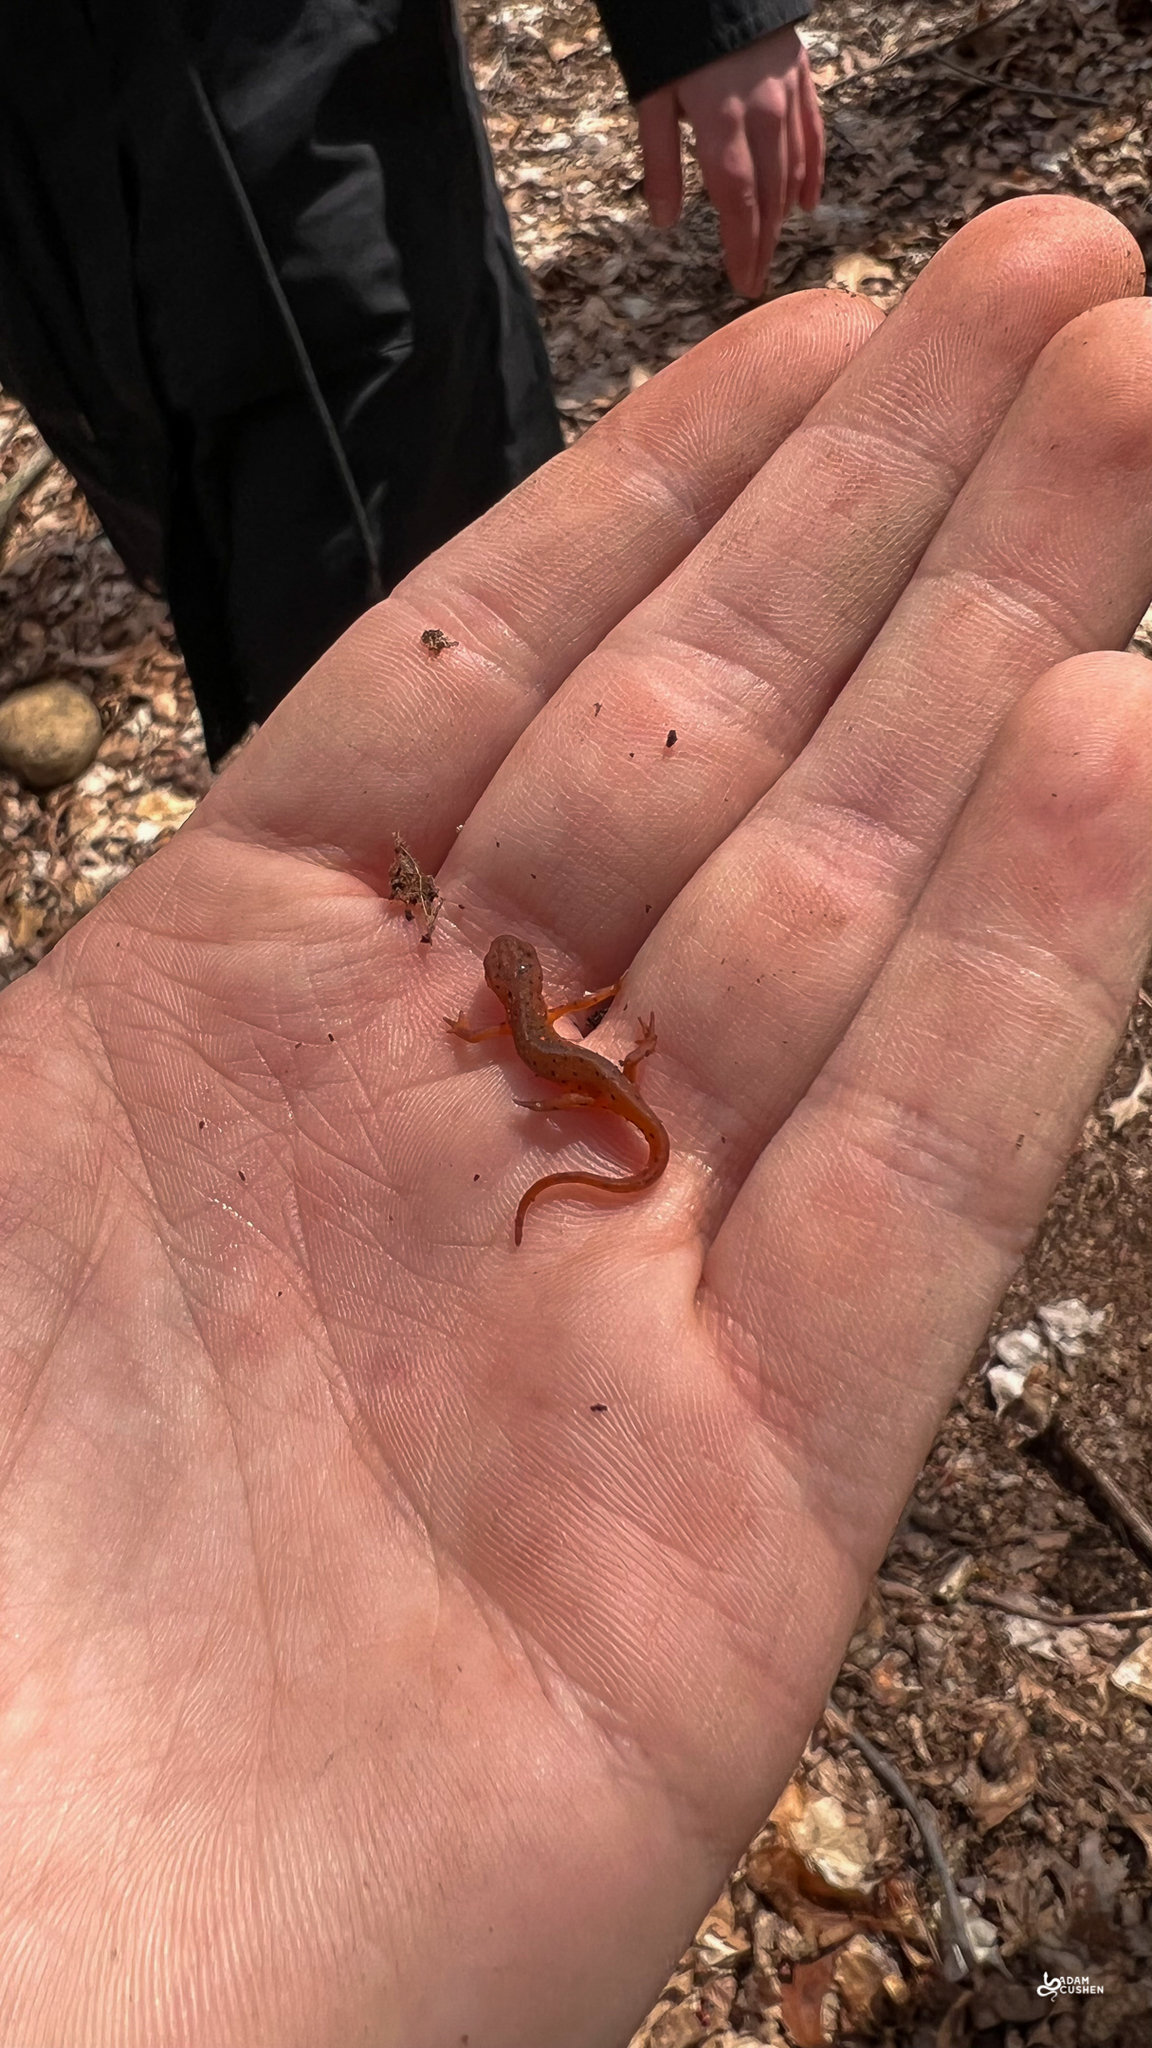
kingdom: Animalia
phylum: Chordata
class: Amphibia
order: Caudata
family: Salamandridae
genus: Notophthalmus
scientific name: Notophthalmus viridescens
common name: Eastern newt
